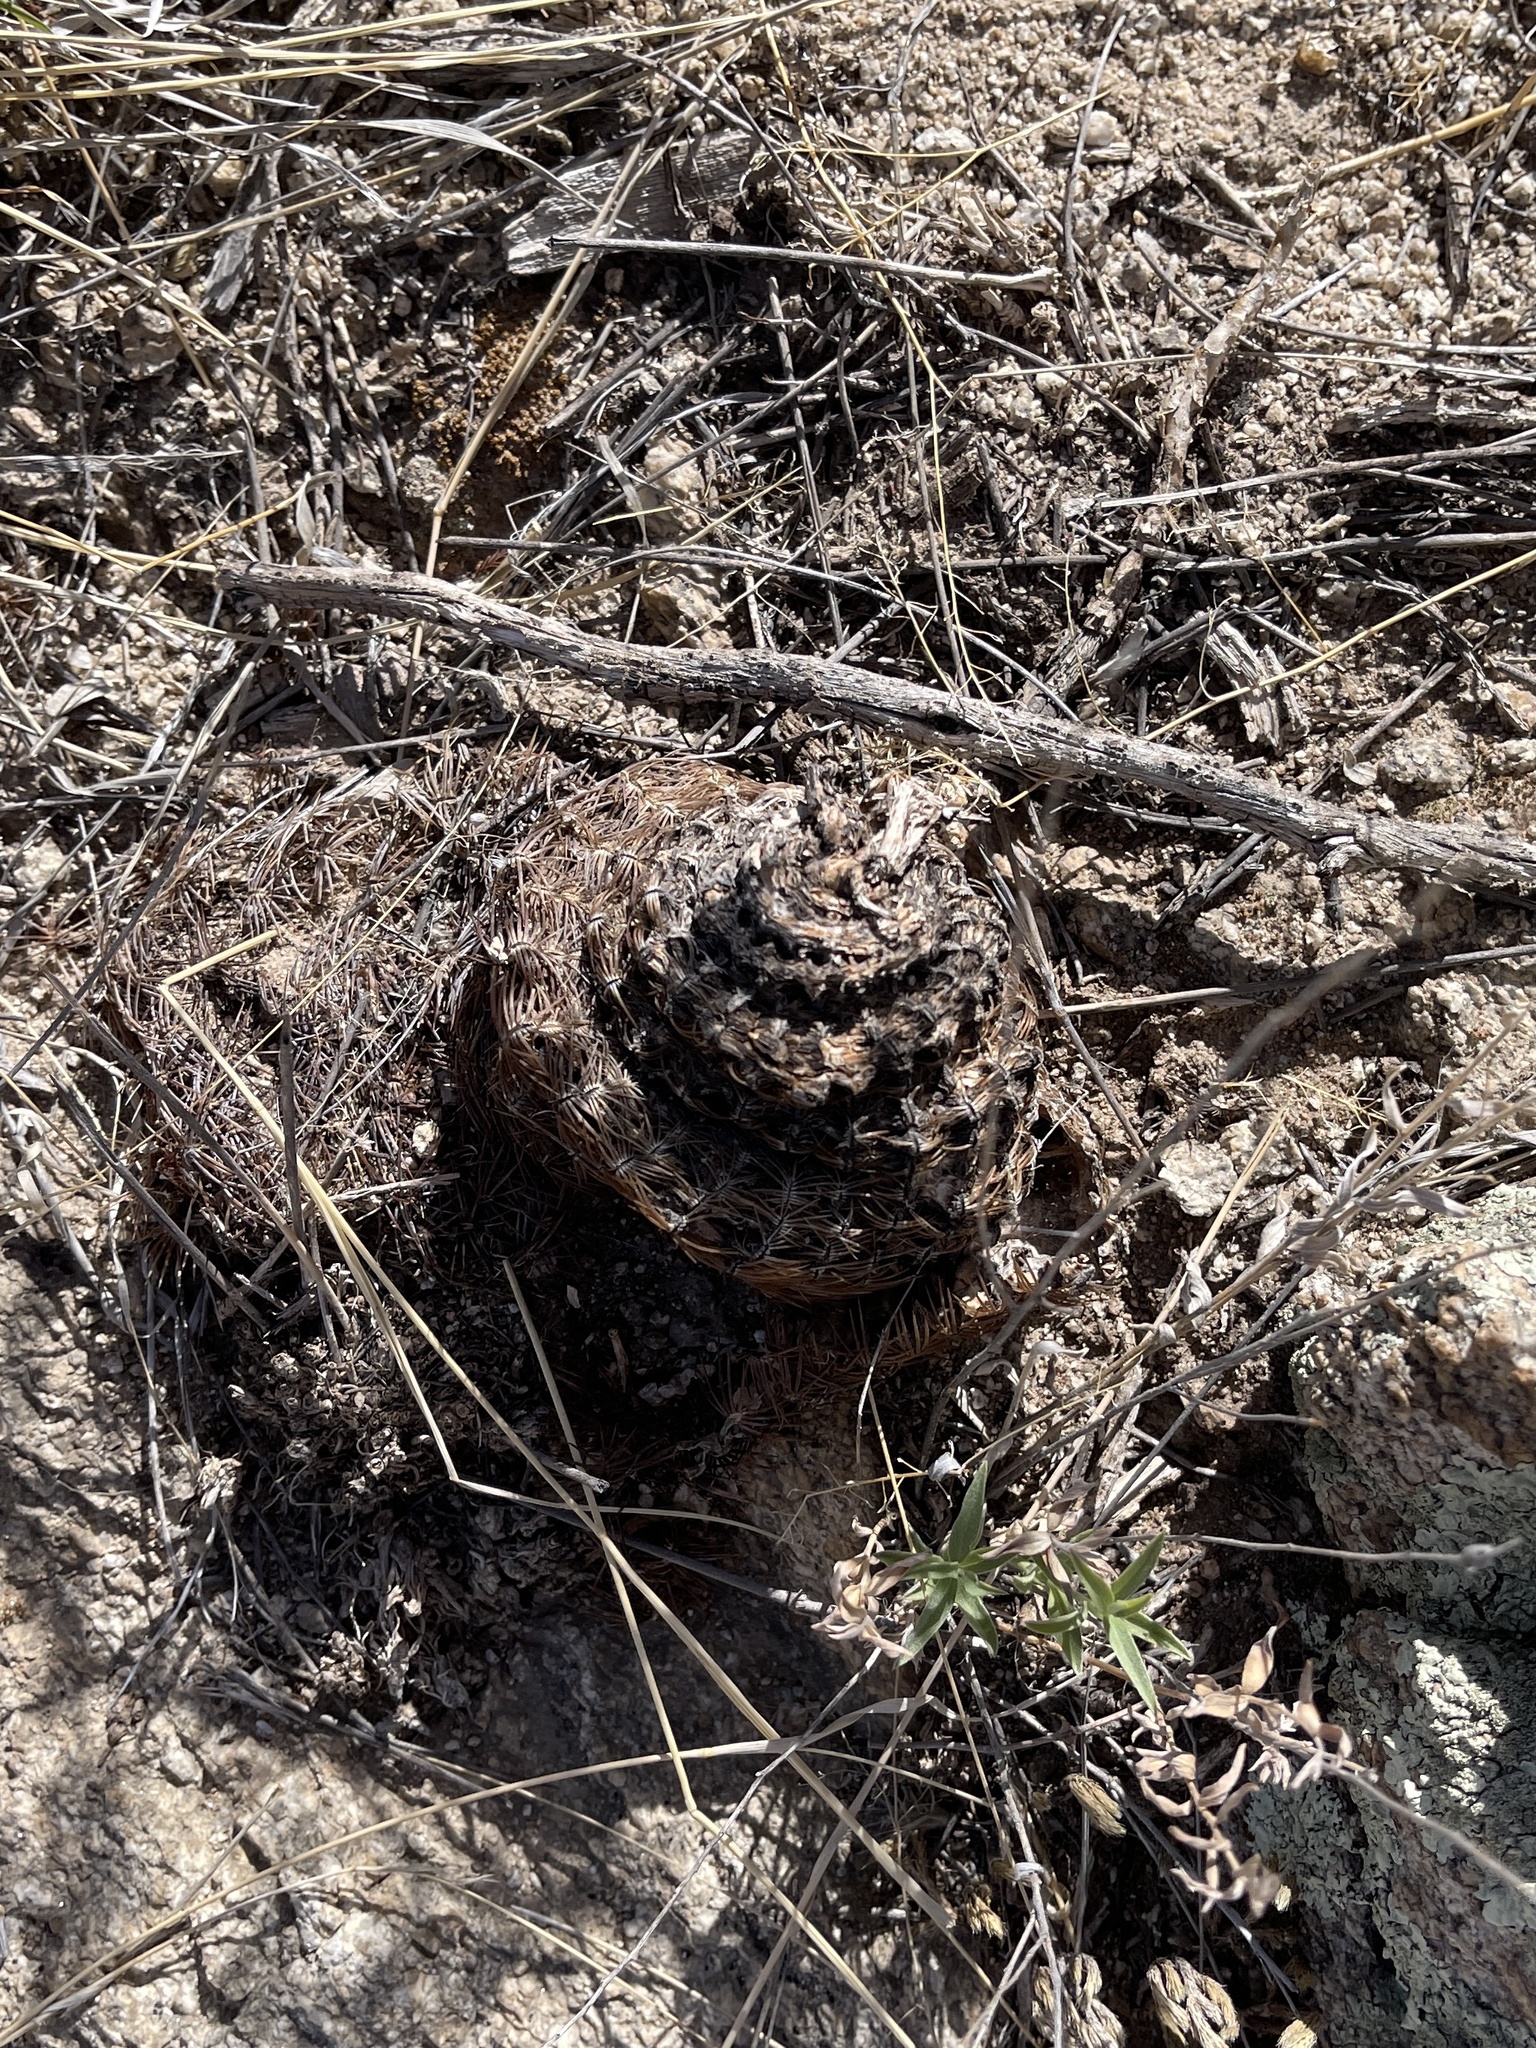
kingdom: Plantae
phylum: Tracheophyta
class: Magnoliopsida
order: Caryophyllales
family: Cactaceae
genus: Echinocereus
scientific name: Echinocereus rigidissimus
